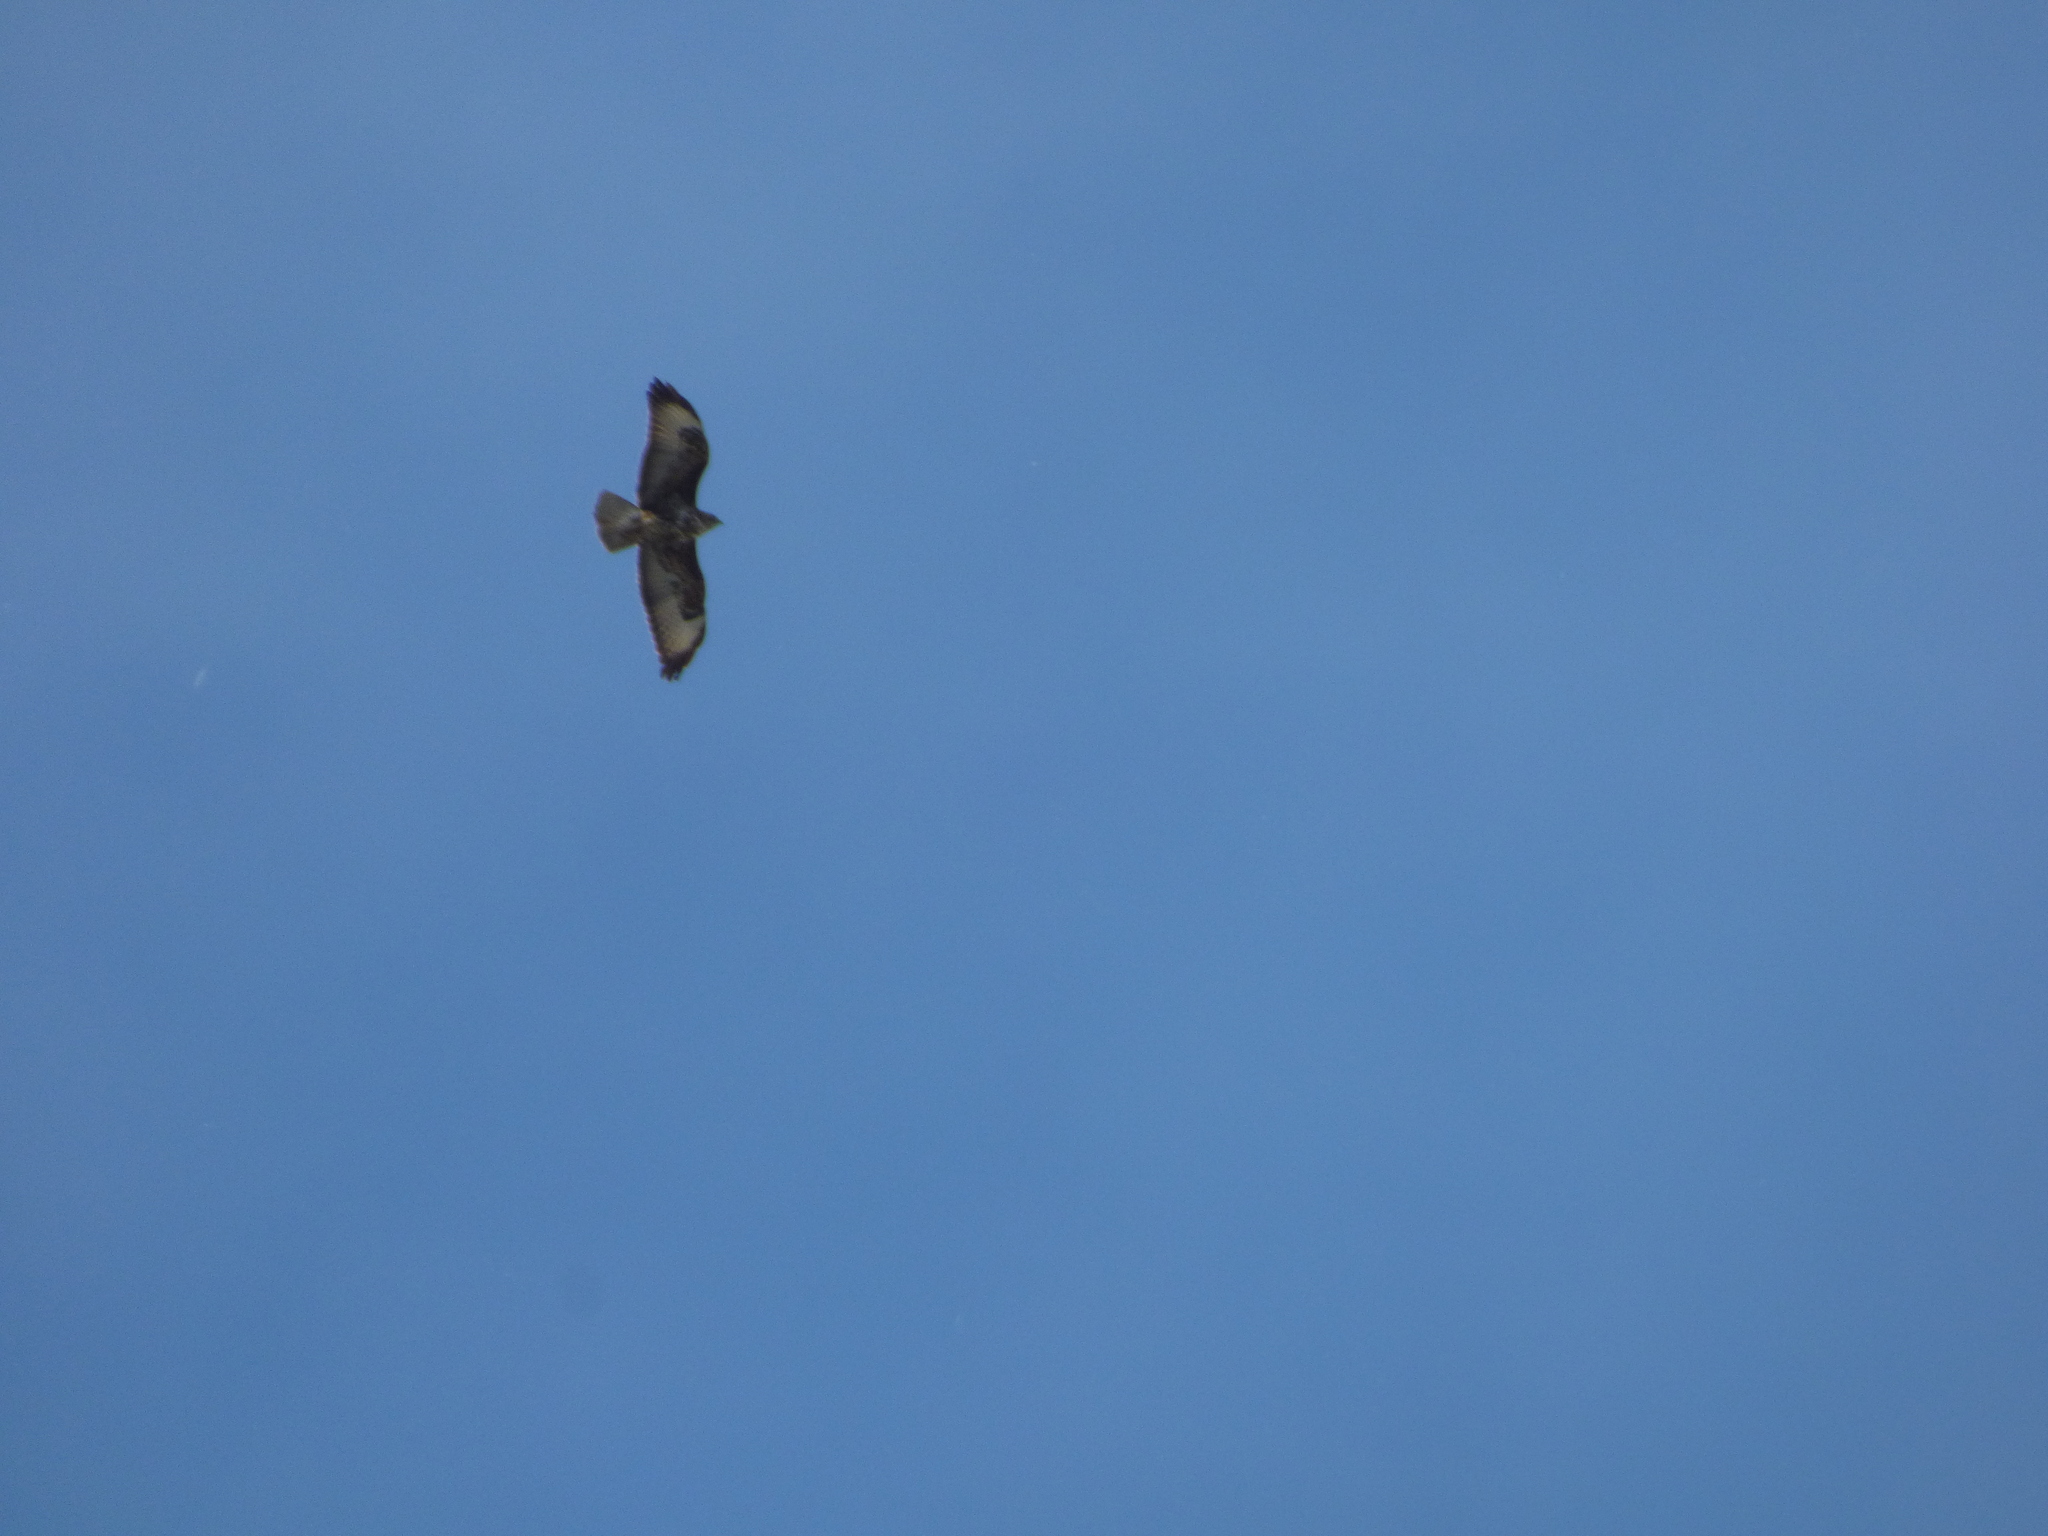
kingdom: Animalia
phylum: Chordata
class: Aves
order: Accipitriformes
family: Accipitridae
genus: Buteo
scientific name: Buteo buteo
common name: Common buzzard
